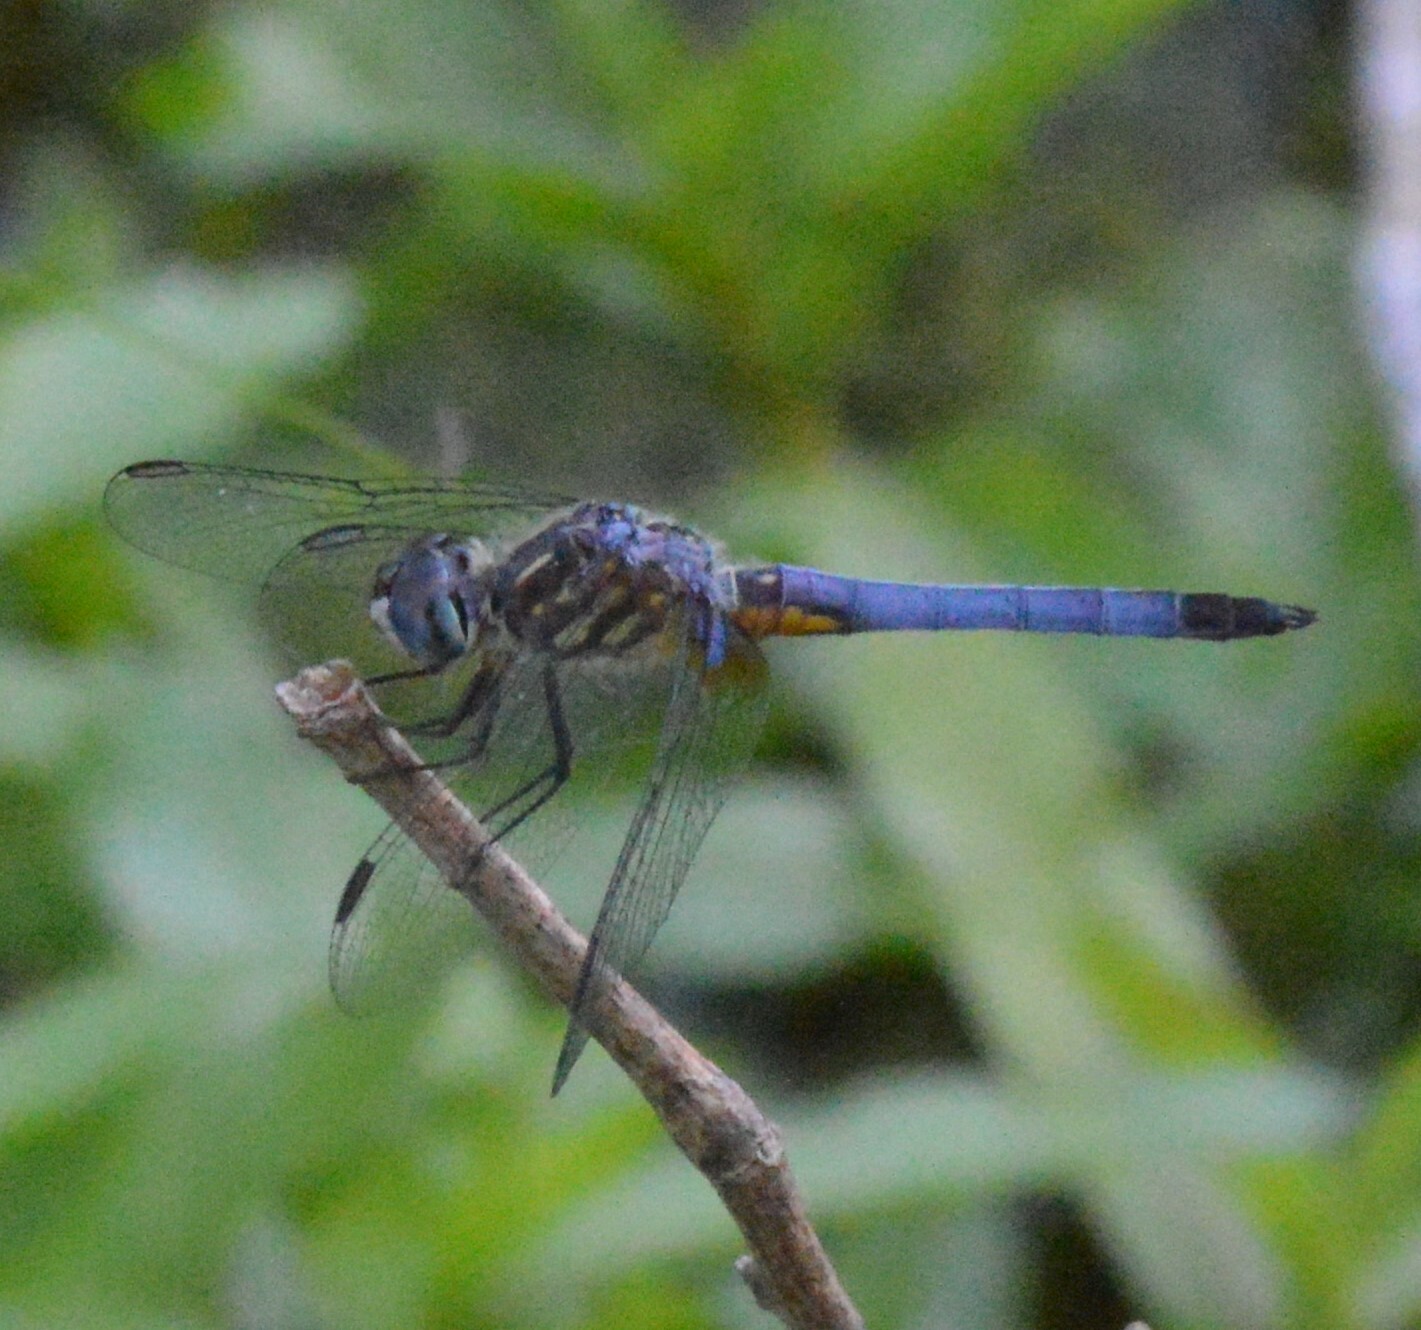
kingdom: Animalia
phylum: Arthropoda
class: Insecta
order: Odonata
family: Libellulidae
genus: Pachydiplax
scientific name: Pachydiplax longipennis
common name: Blue dasher
